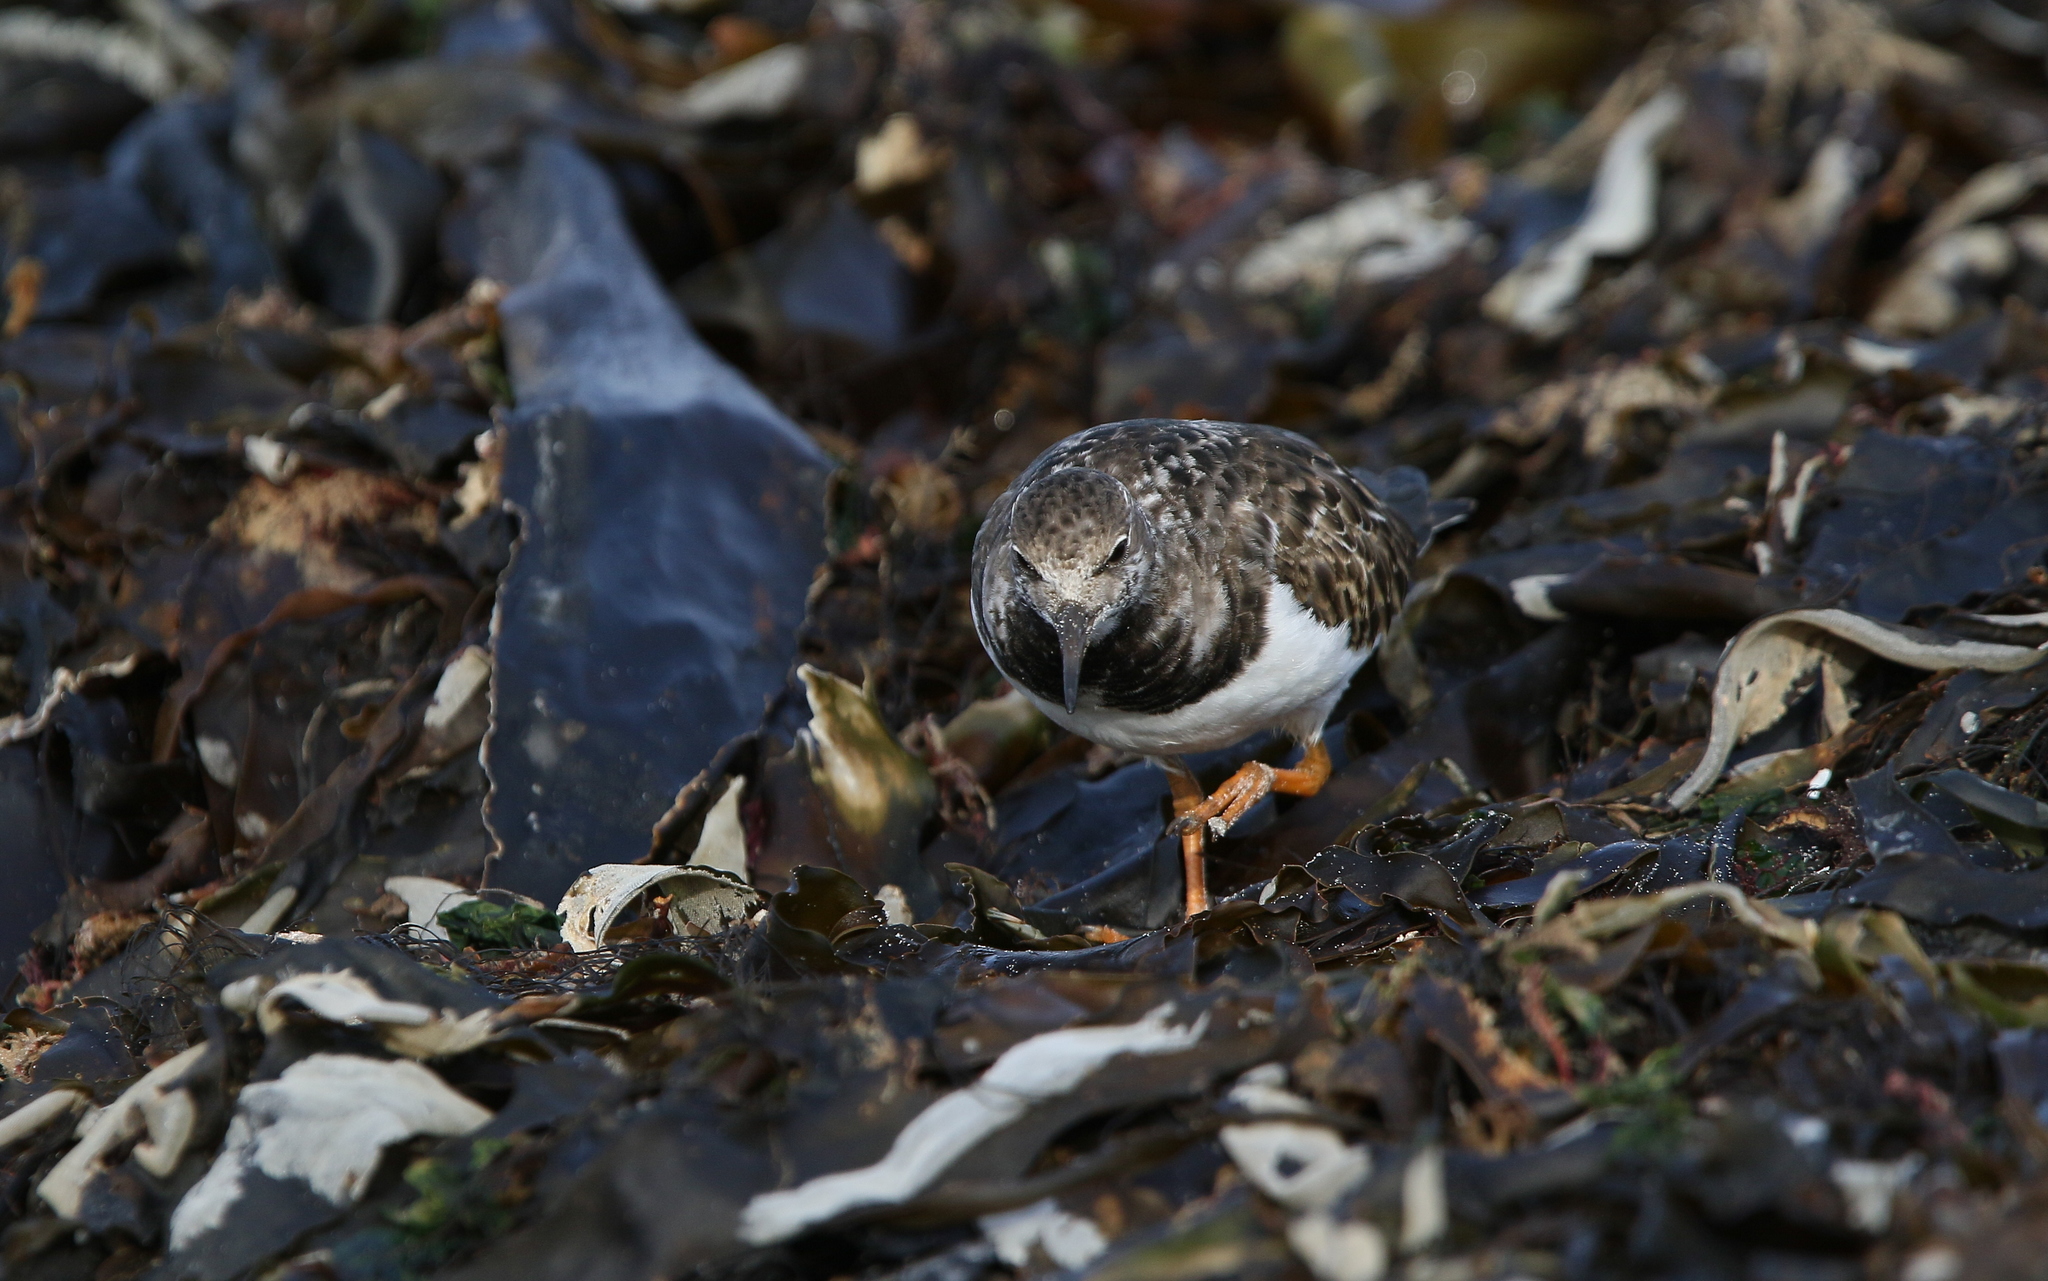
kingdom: Animalia
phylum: Chordata
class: Aves
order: Charadriiformes
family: Scolopacidae
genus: Arenaria
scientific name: Arenaria interpres
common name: Ruddy turnstone
